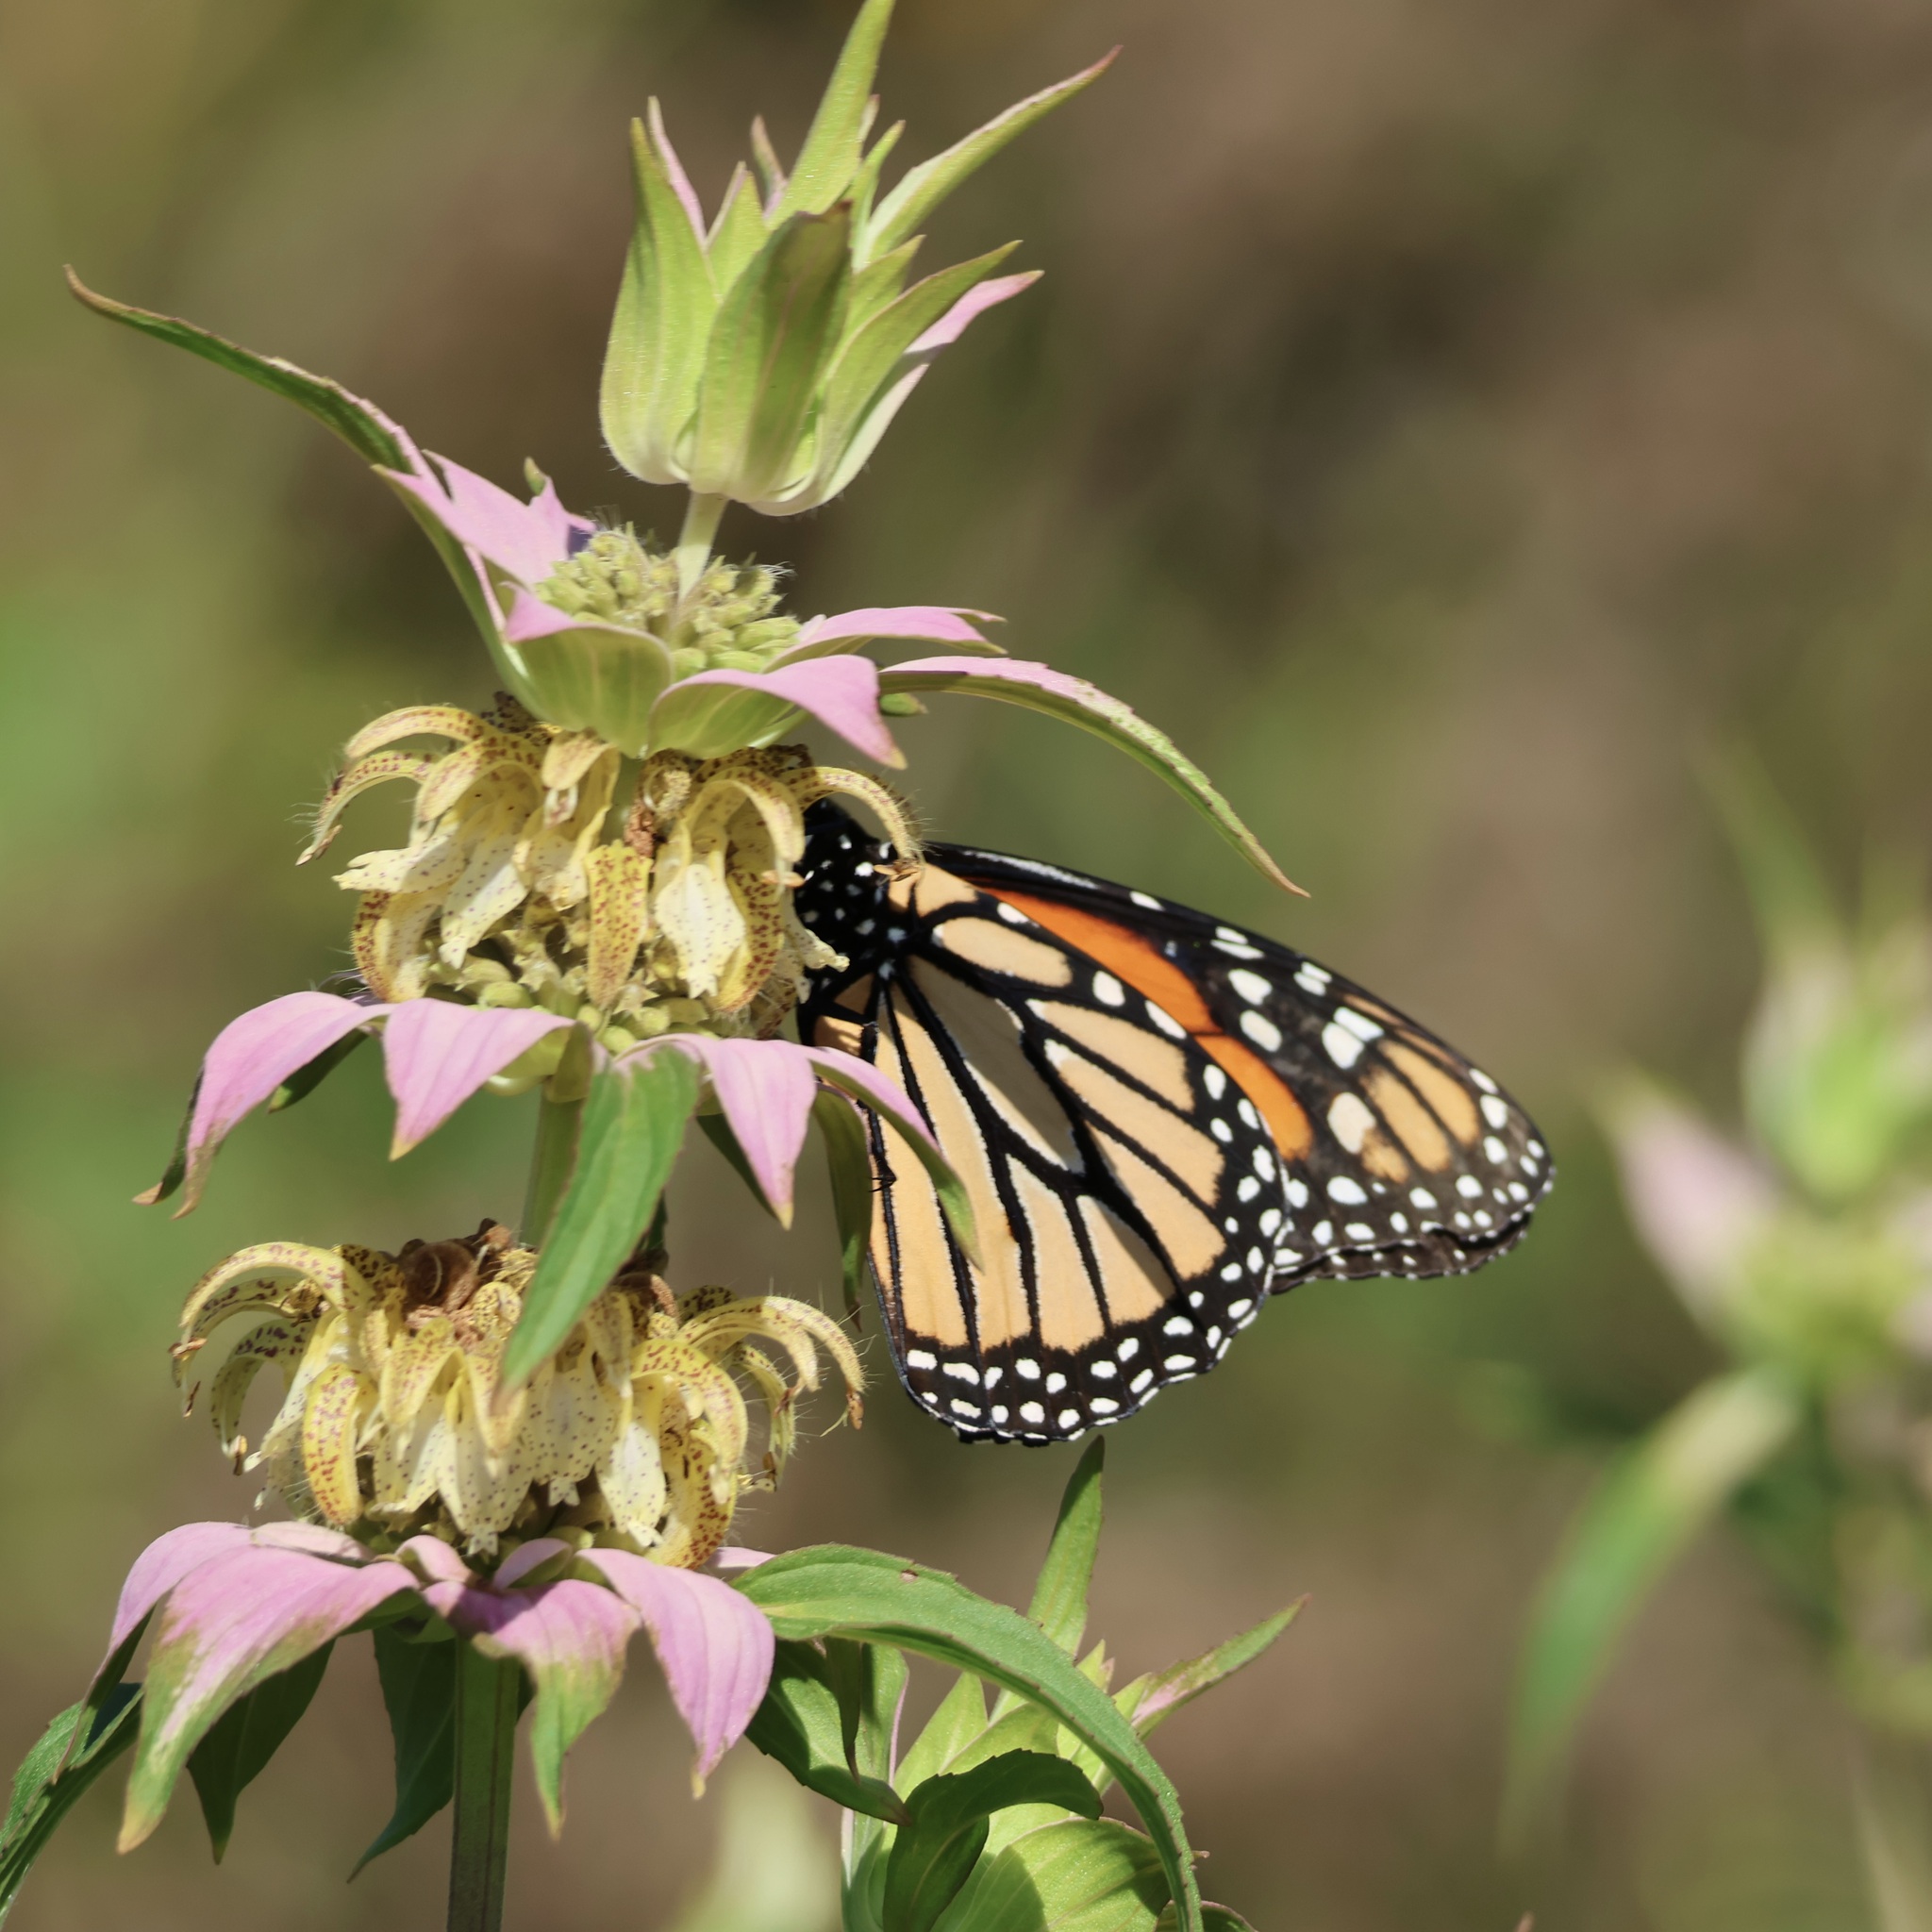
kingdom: Animalia
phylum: Arthropoda
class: Insecta
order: Lepidoptera
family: Nymphalidae
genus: Danaus
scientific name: Danaus plexippus
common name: Monarch
